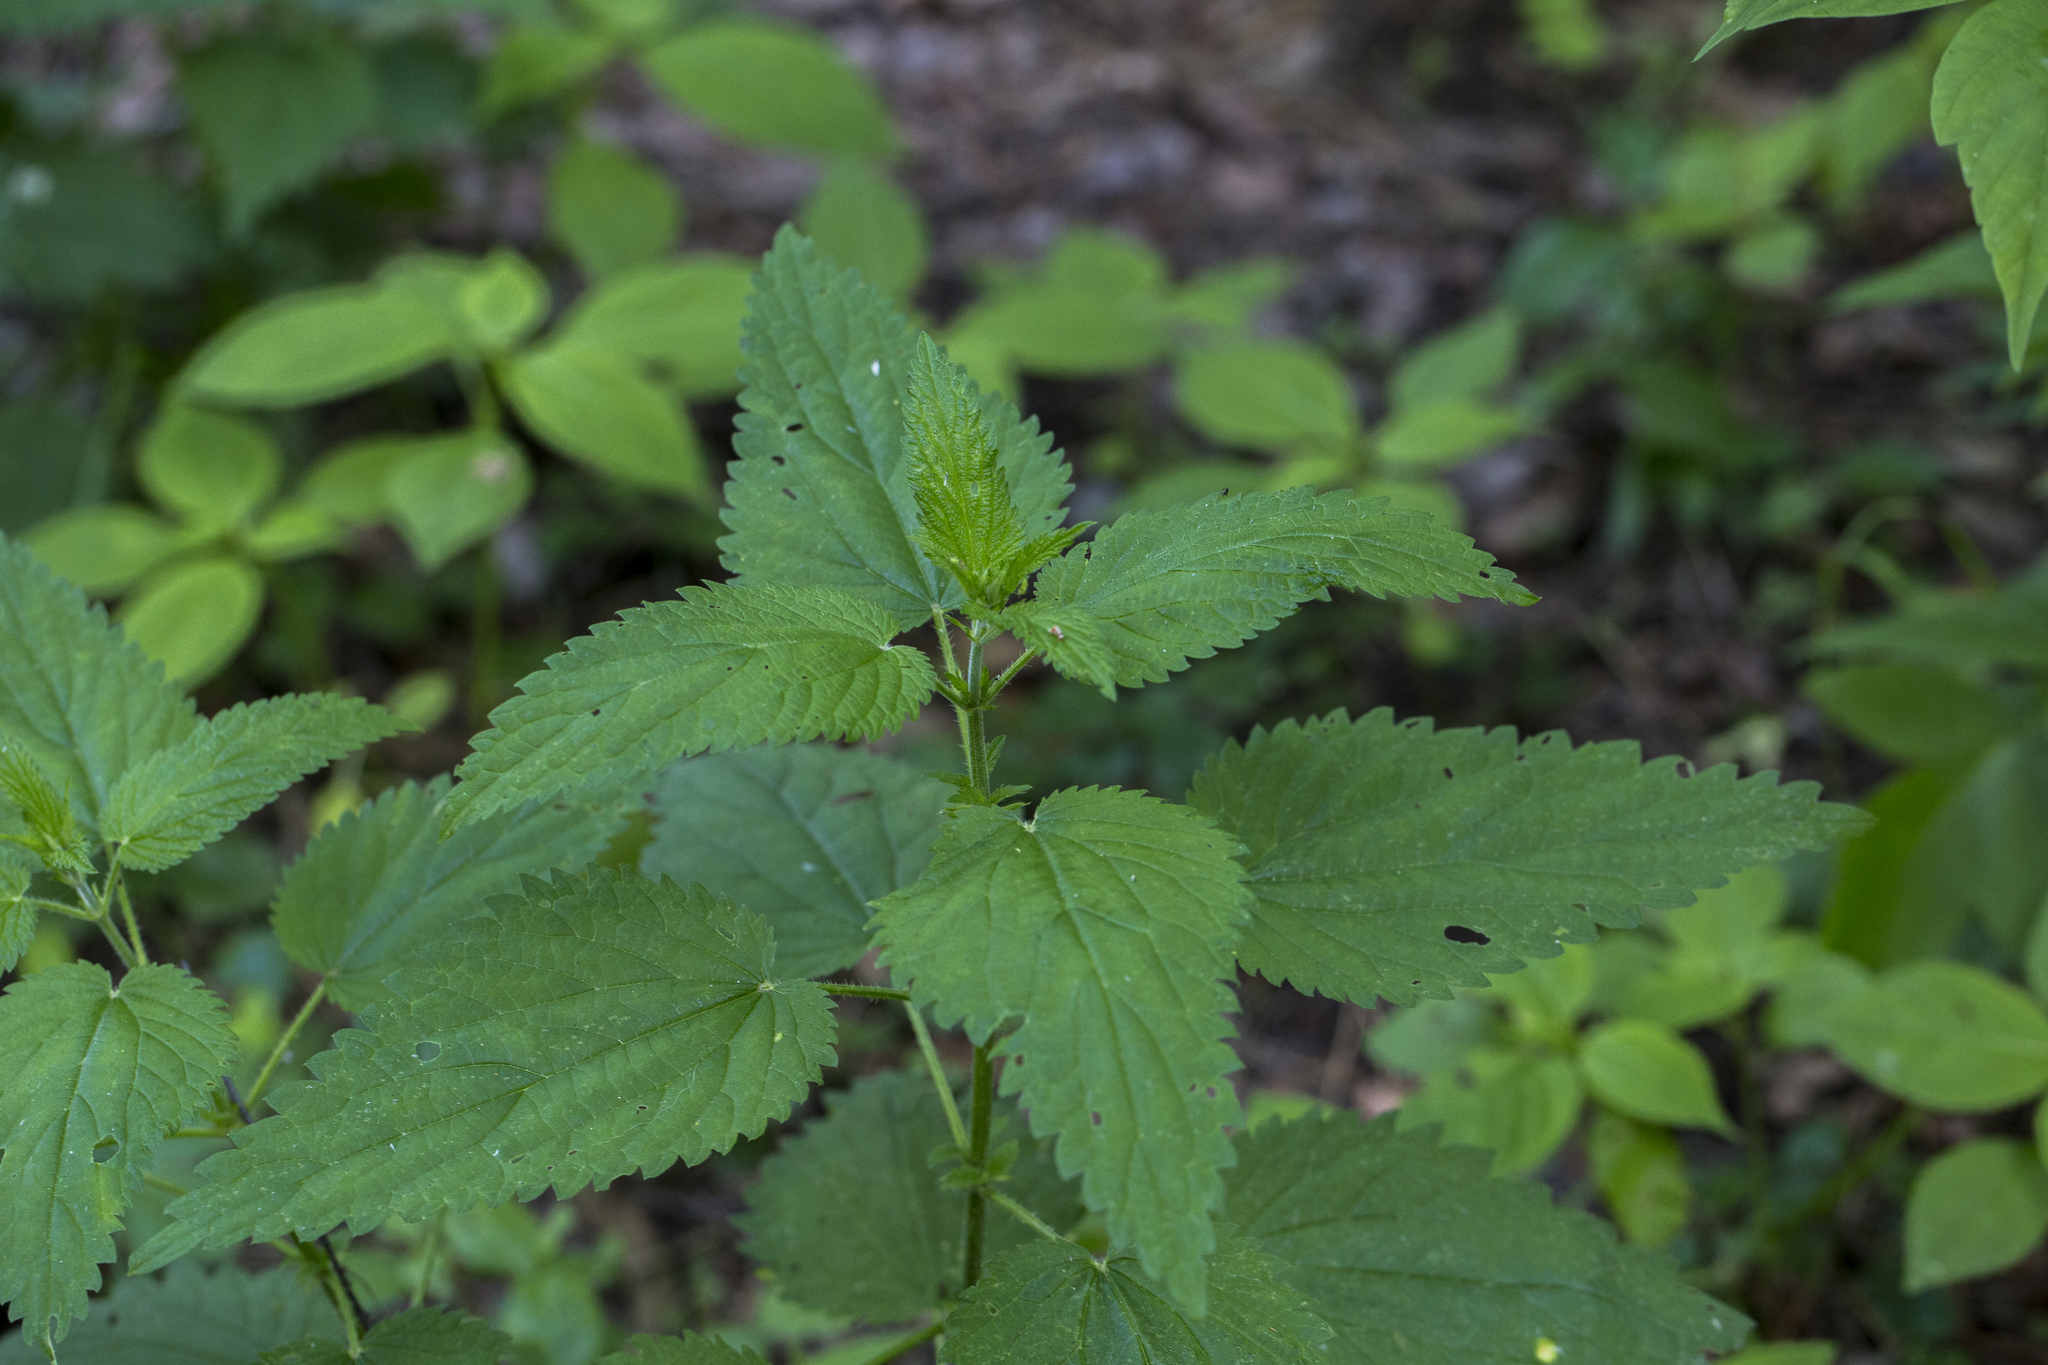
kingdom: Plantae
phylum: Tracheophyta
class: Magnoliopsida
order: Rosales
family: Urticaceae
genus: Urtica
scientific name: Urtica dioica
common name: Common nettle
